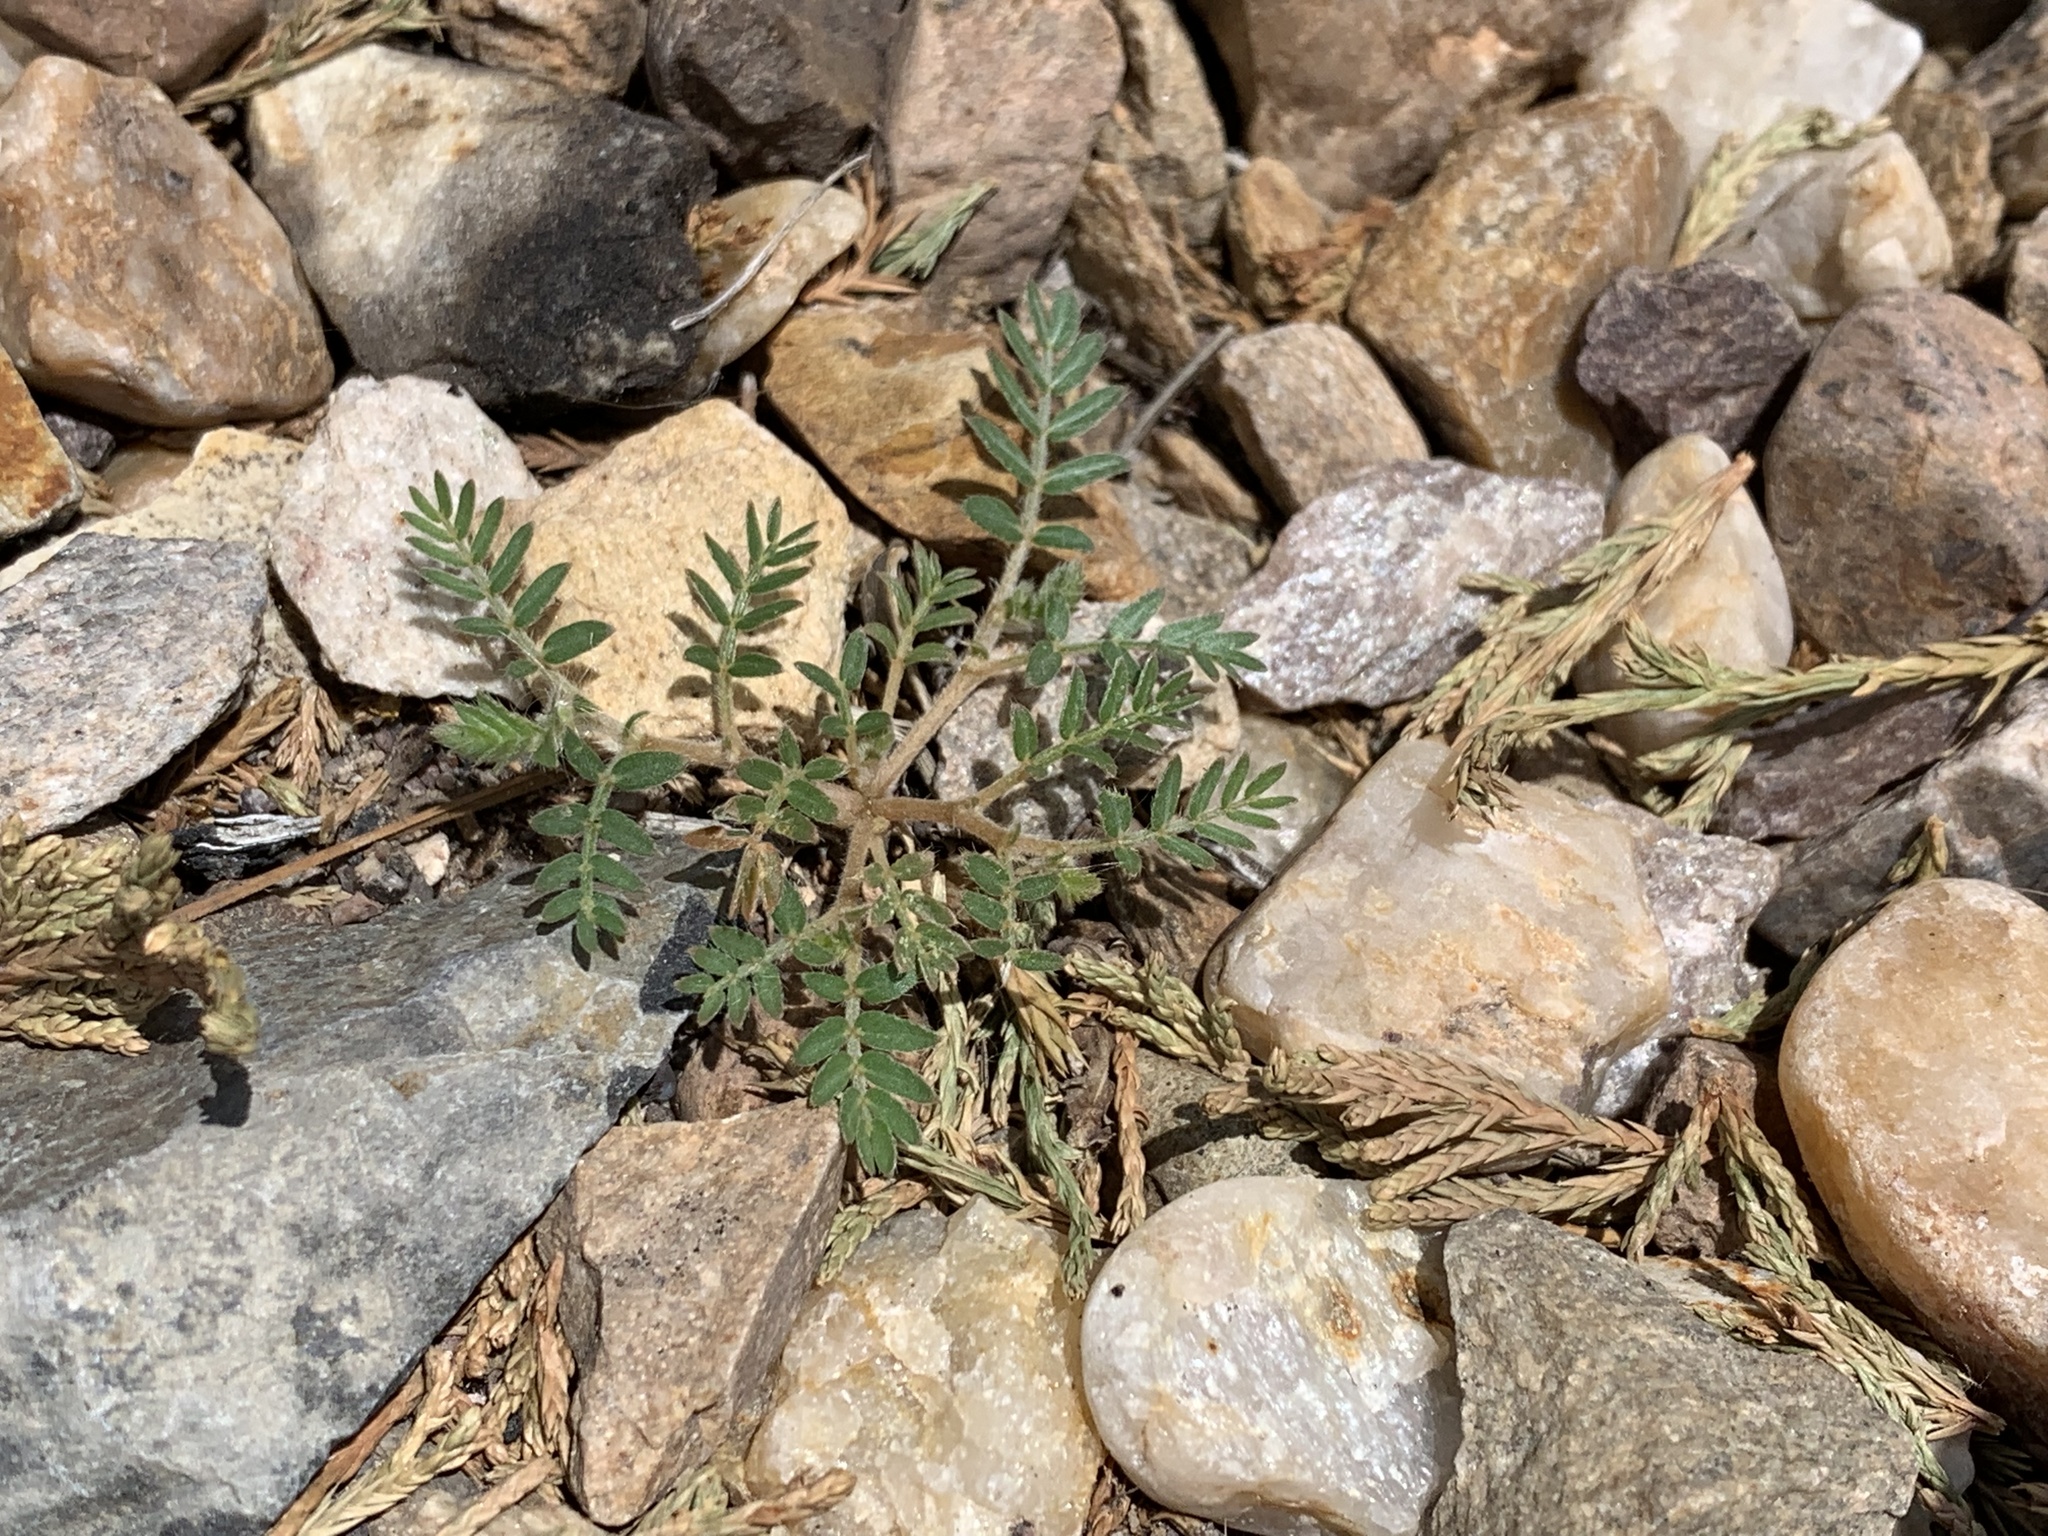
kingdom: Plantae
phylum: Tracheophyta
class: Magnoliopsida
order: Zygophyllales
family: Zygophyllaceae
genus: Tribulus
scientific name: Tribulus terrestris
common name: Puncturevine
